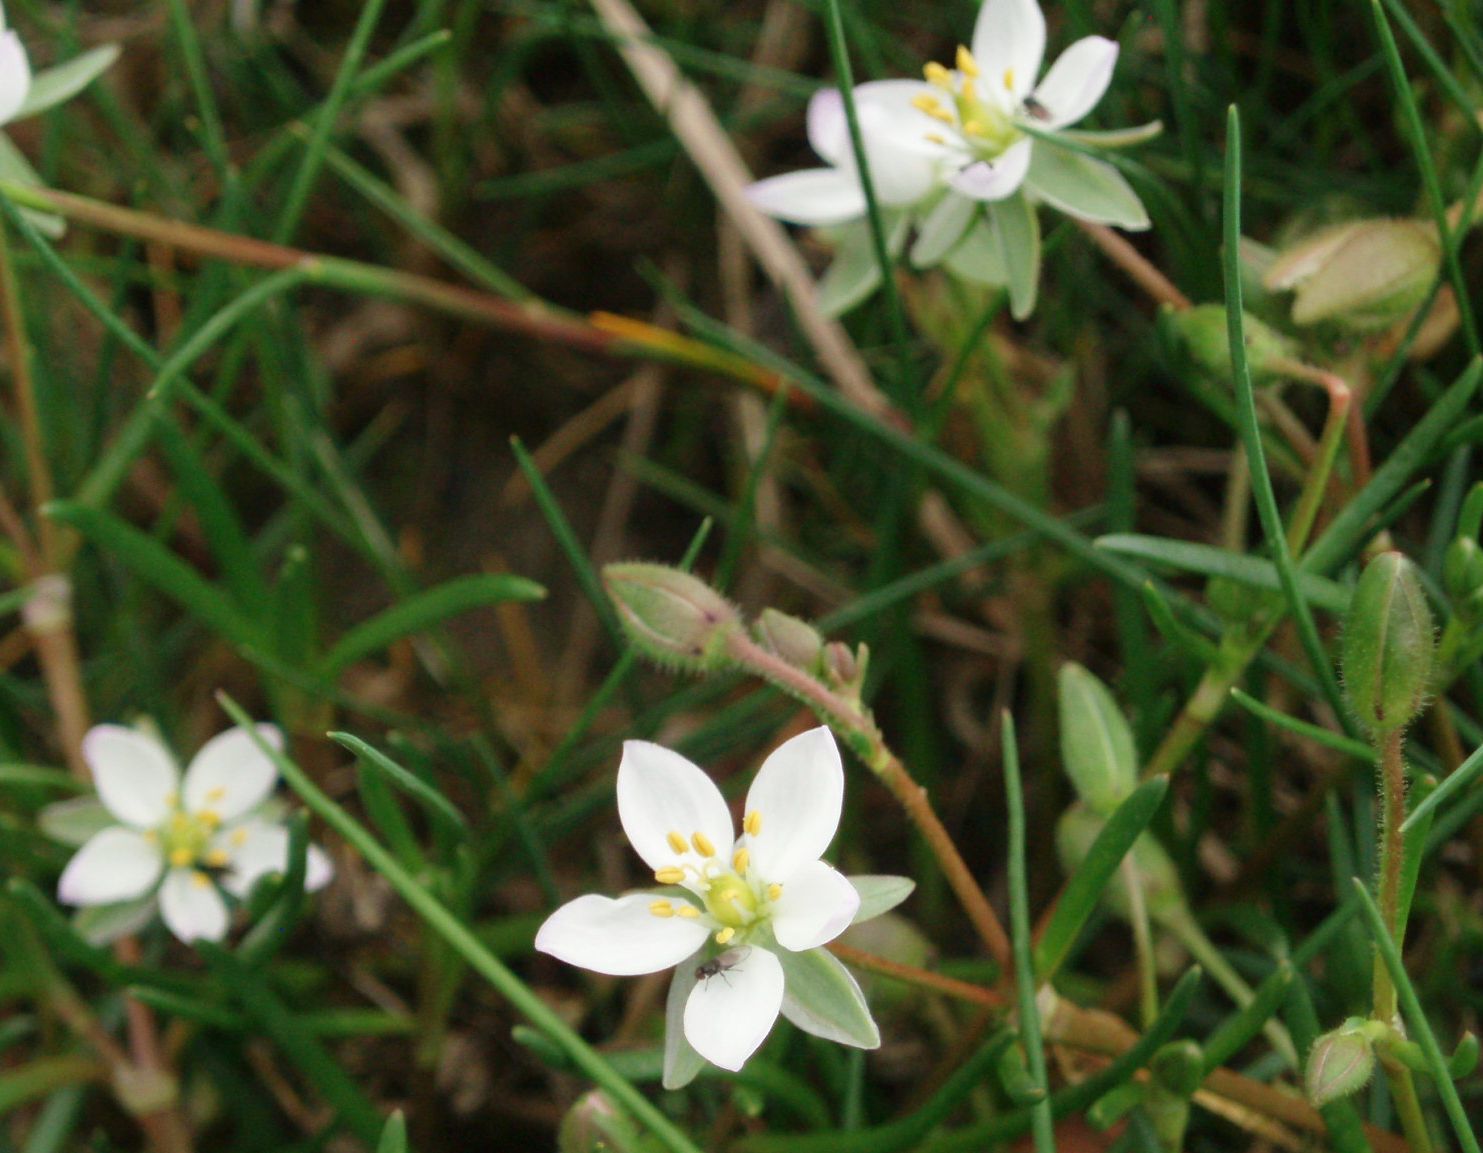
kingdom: Plantae
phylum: Tracheophyta
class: Magnoliopsida
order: Caryophyllales
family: Caryophyllaceae
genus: Spergularia
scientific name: Spergularia media
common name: Greater sea-spurrey
